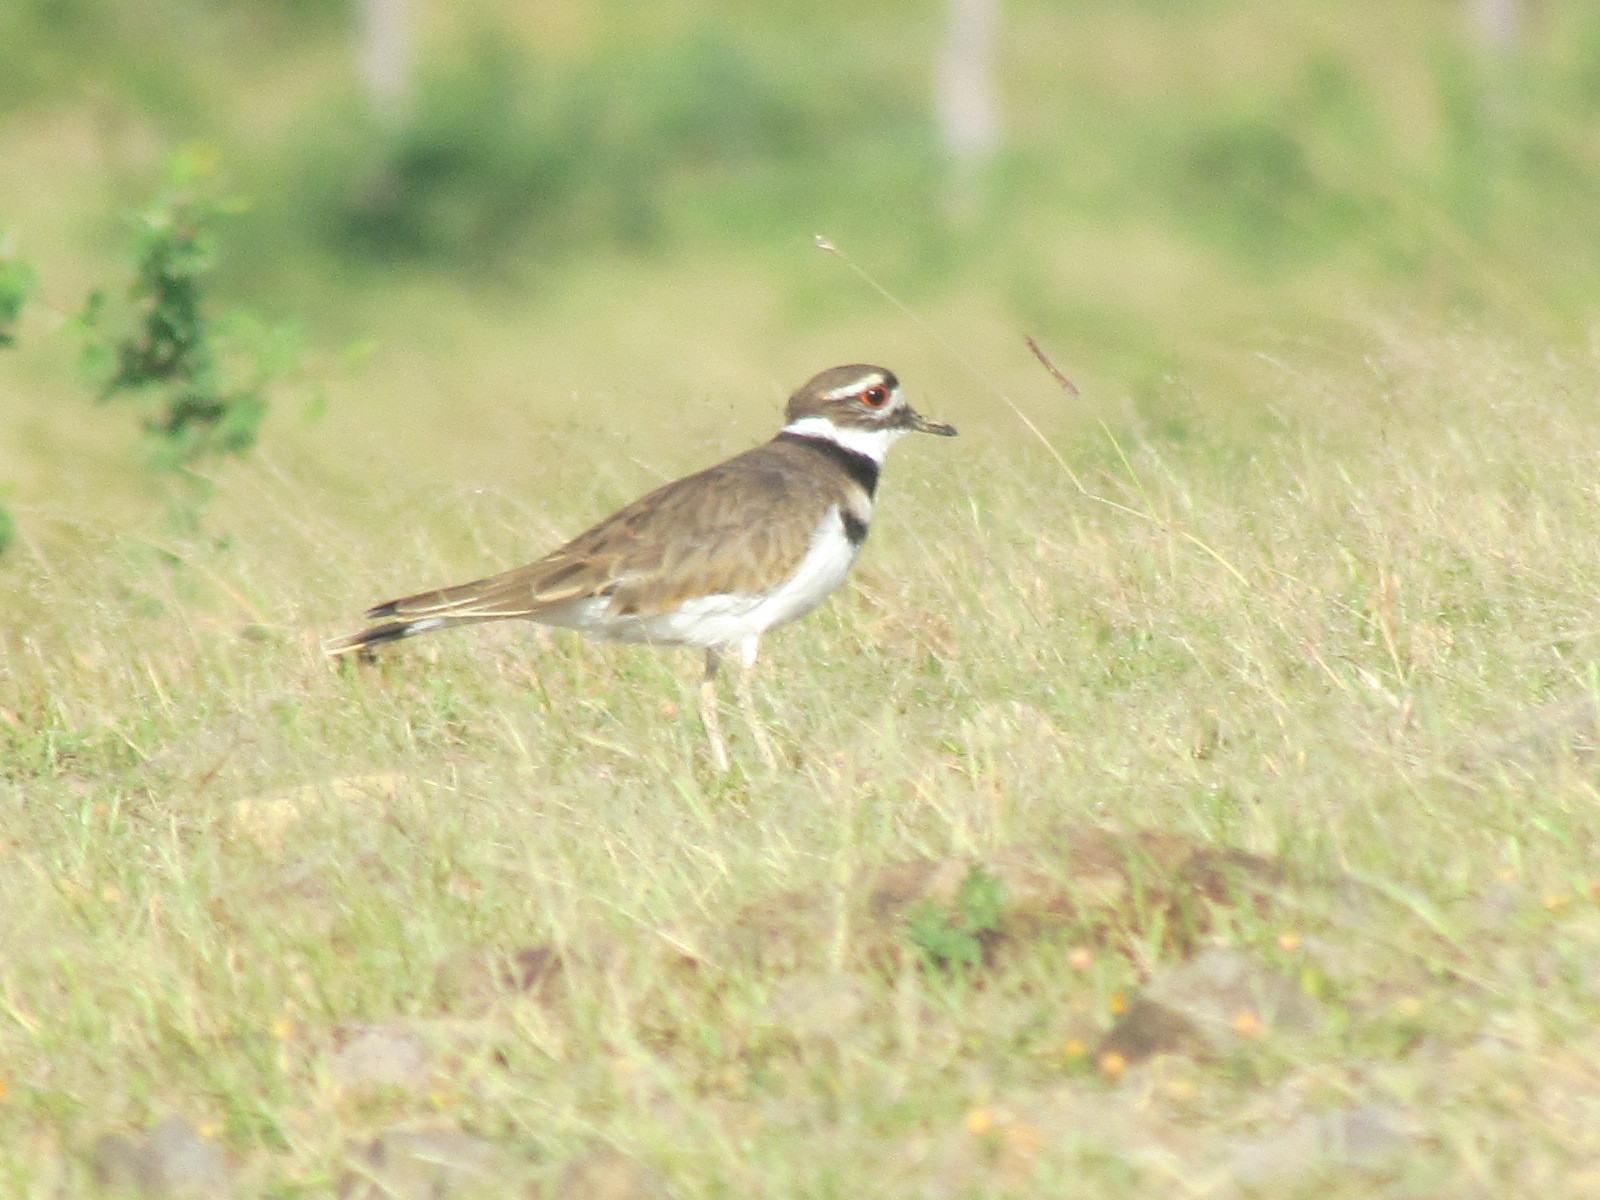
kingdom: Animalia
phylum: Chordata
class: Aves
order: Charadriiformes
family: Charadriidae
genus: Charadrius
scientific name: Charadrius vociferus
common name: Killdeer
